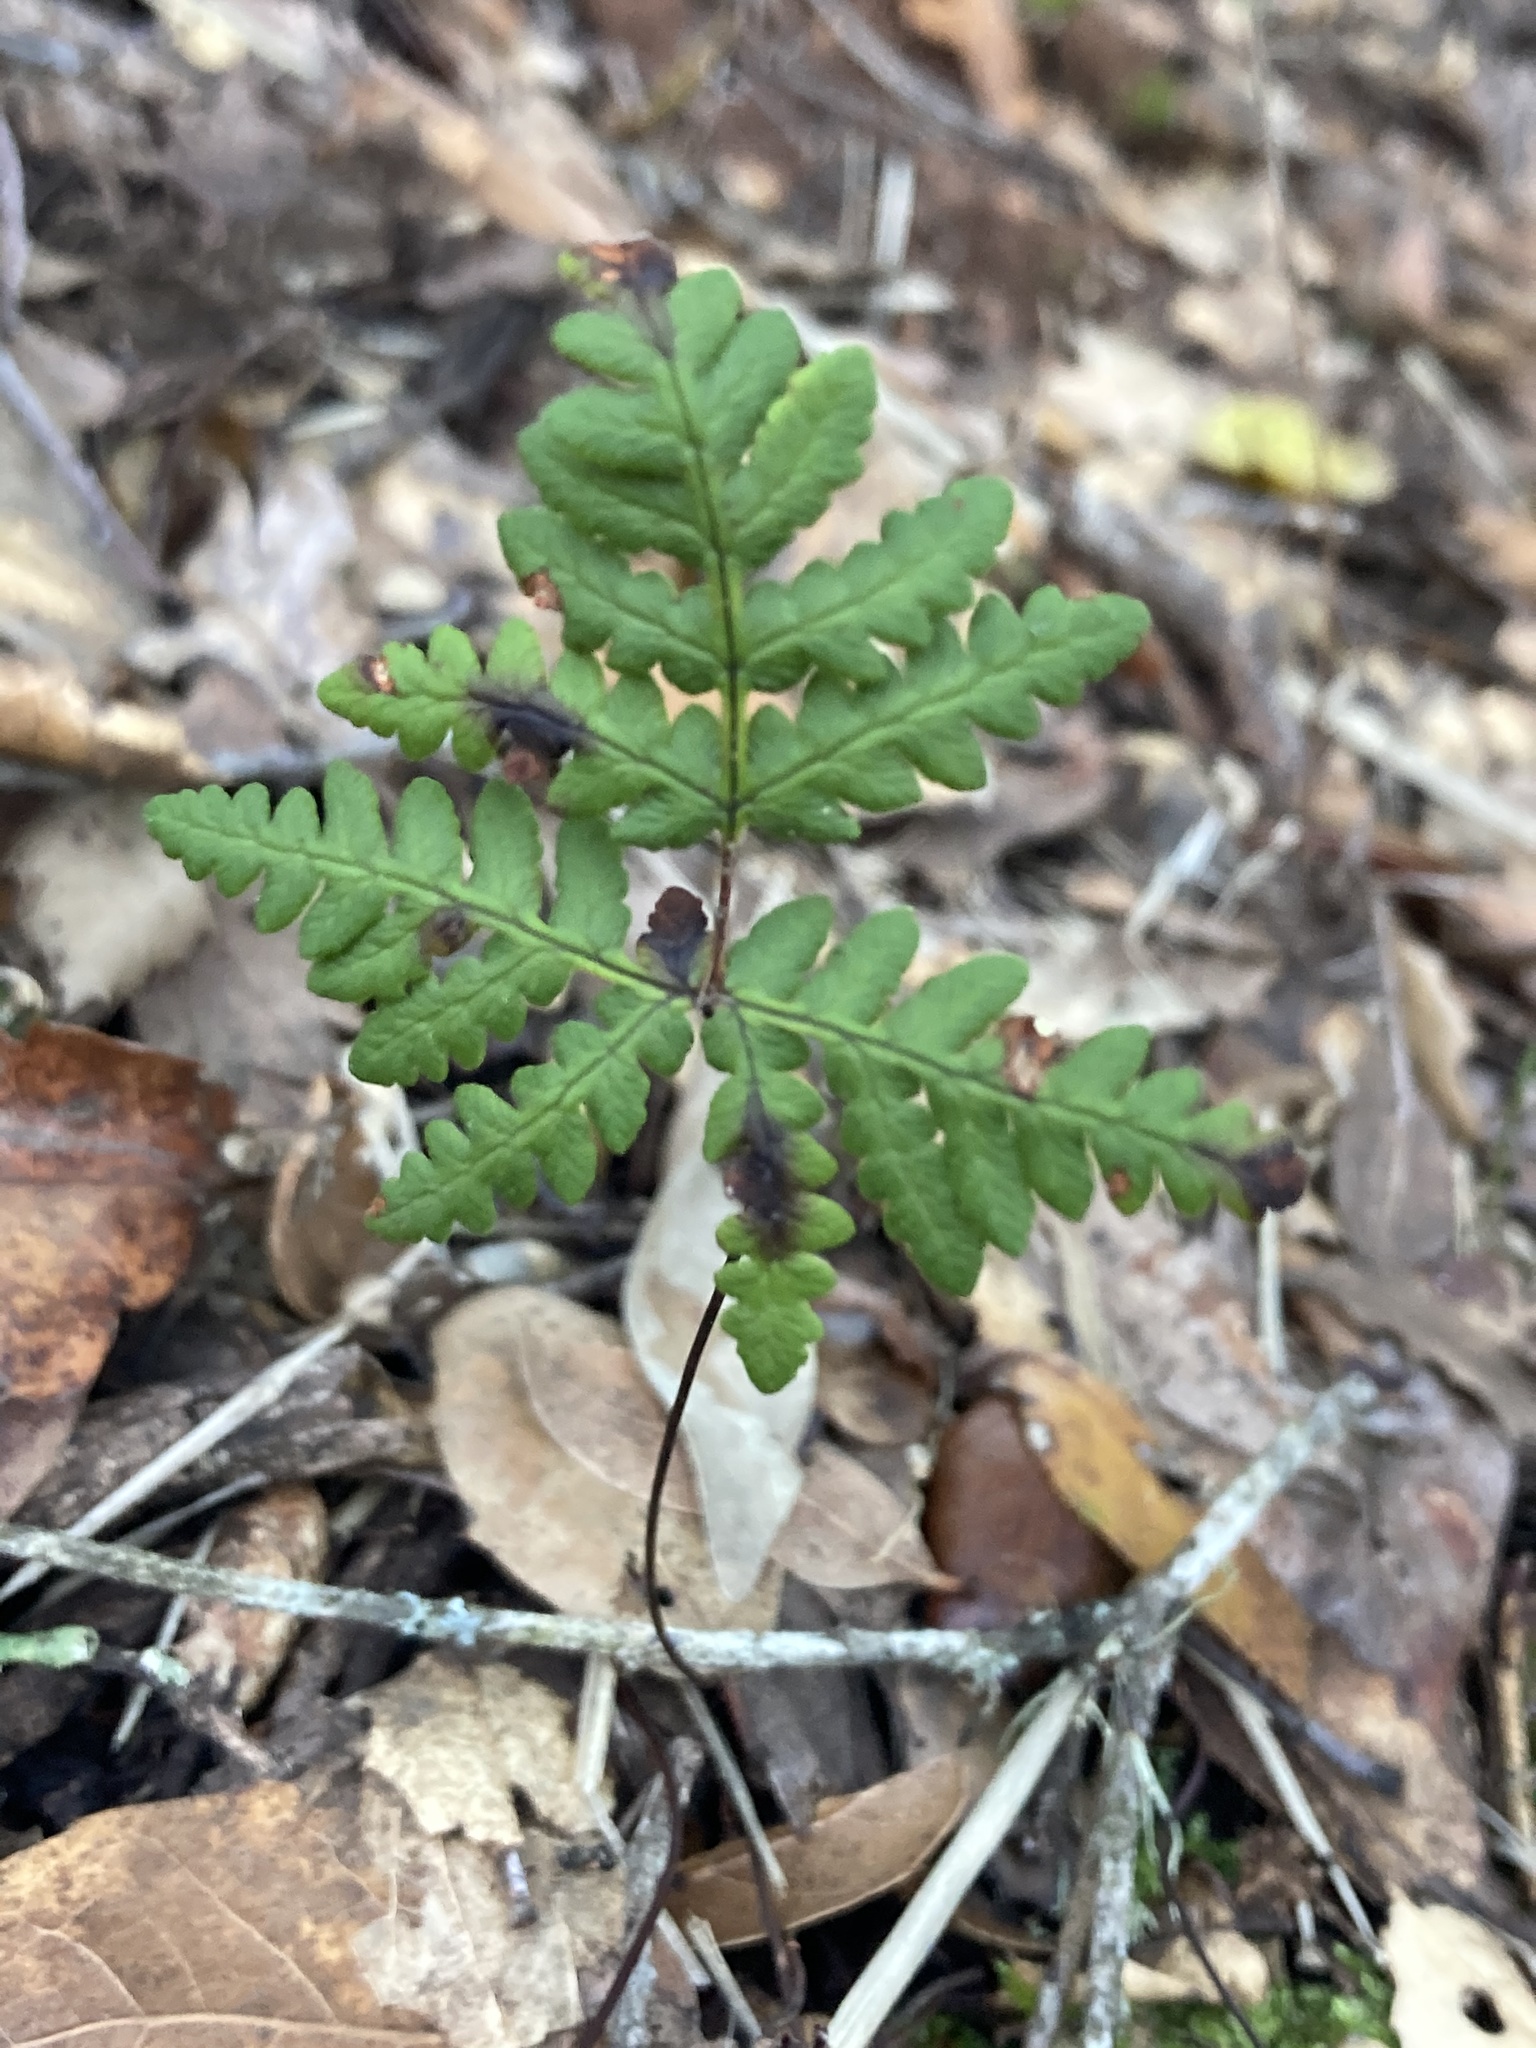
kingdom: Plantae
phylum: Tracheophyta
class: Polypodiopsida
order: Polypodiales
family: Pteridaceae
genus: Pentagramma
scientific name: Pentagramma triangularis
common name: Gold fern
